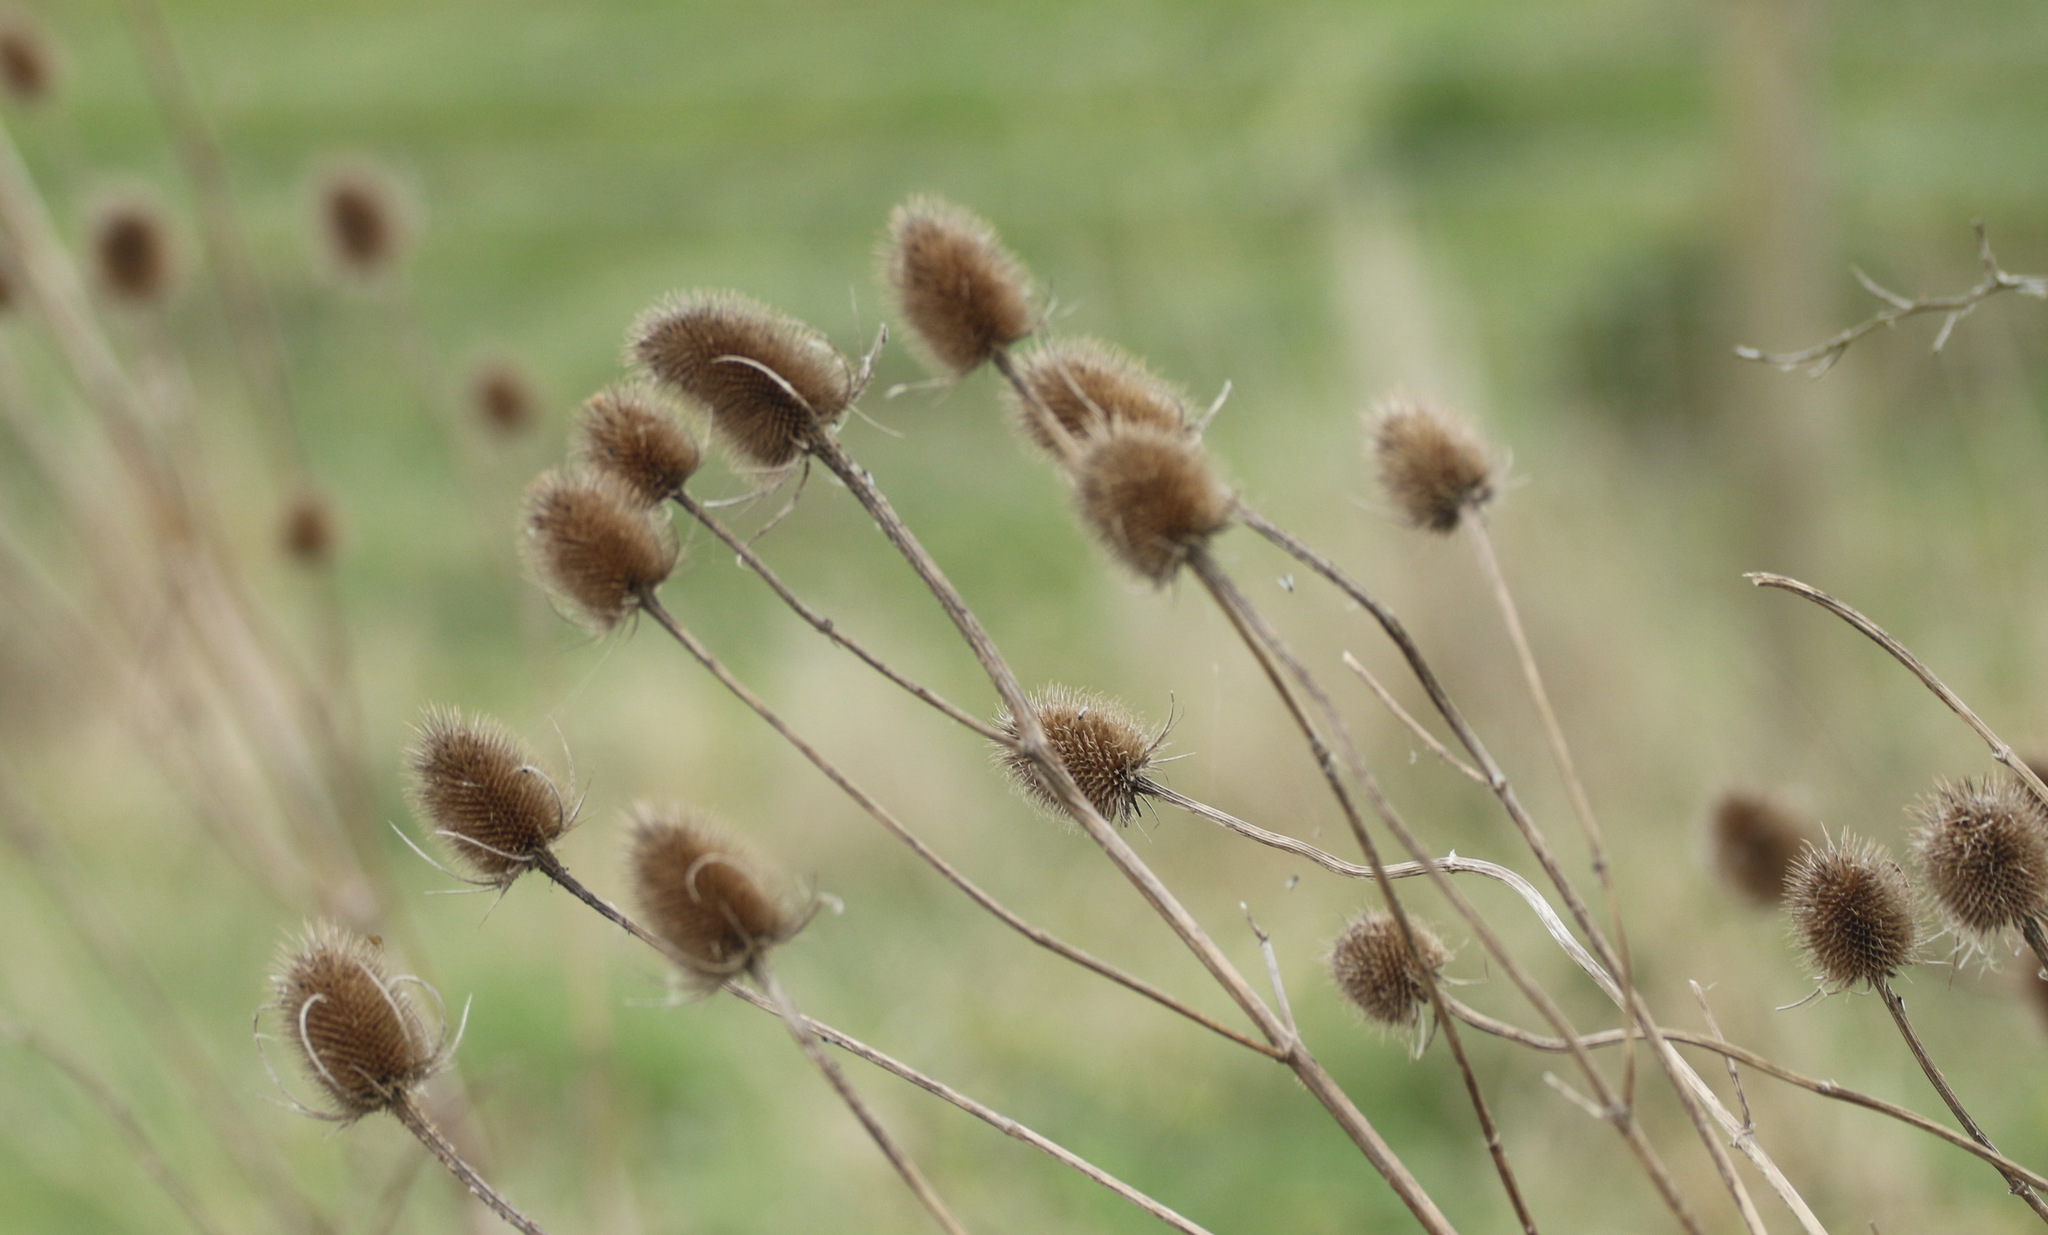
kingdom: Plantae
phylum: Tracheophyta
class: Magnoliopsida
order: Dipsacales
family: Caprifoliaceae
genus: Dipsacus
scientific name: Dipsacus fullonum
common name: Teasel
